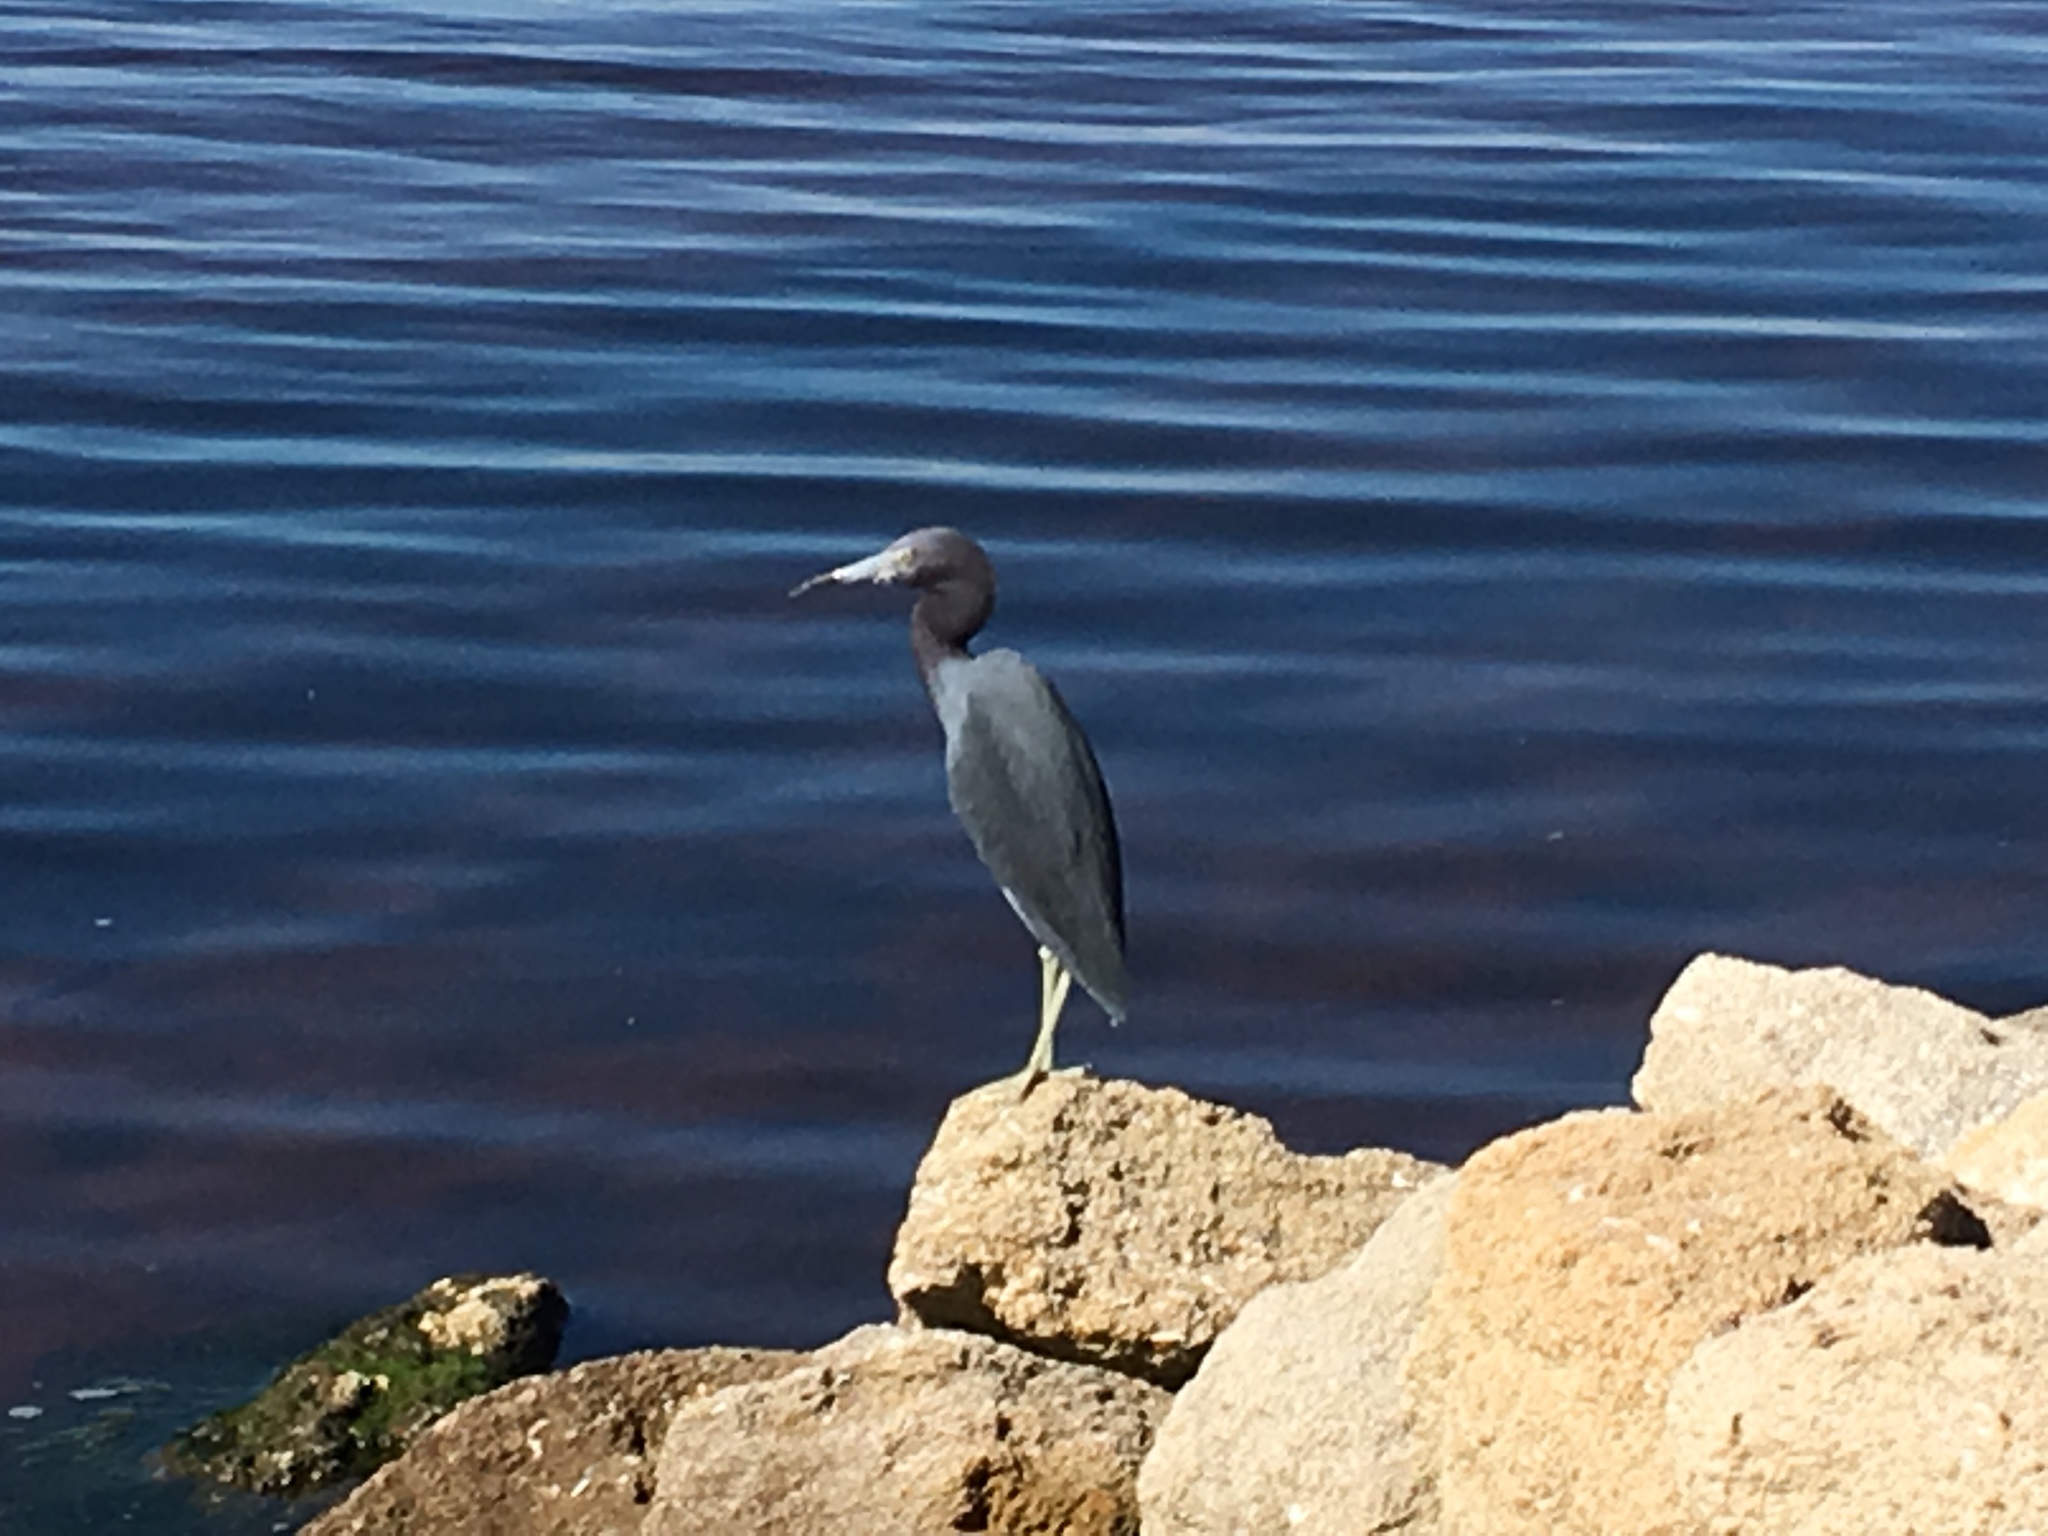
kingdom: Animalia
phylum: Chordata
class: Aves
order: Pelecaniformes
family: Ardeidae
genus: Egretta
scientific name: Egretta caerulea
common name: Little blue heron
